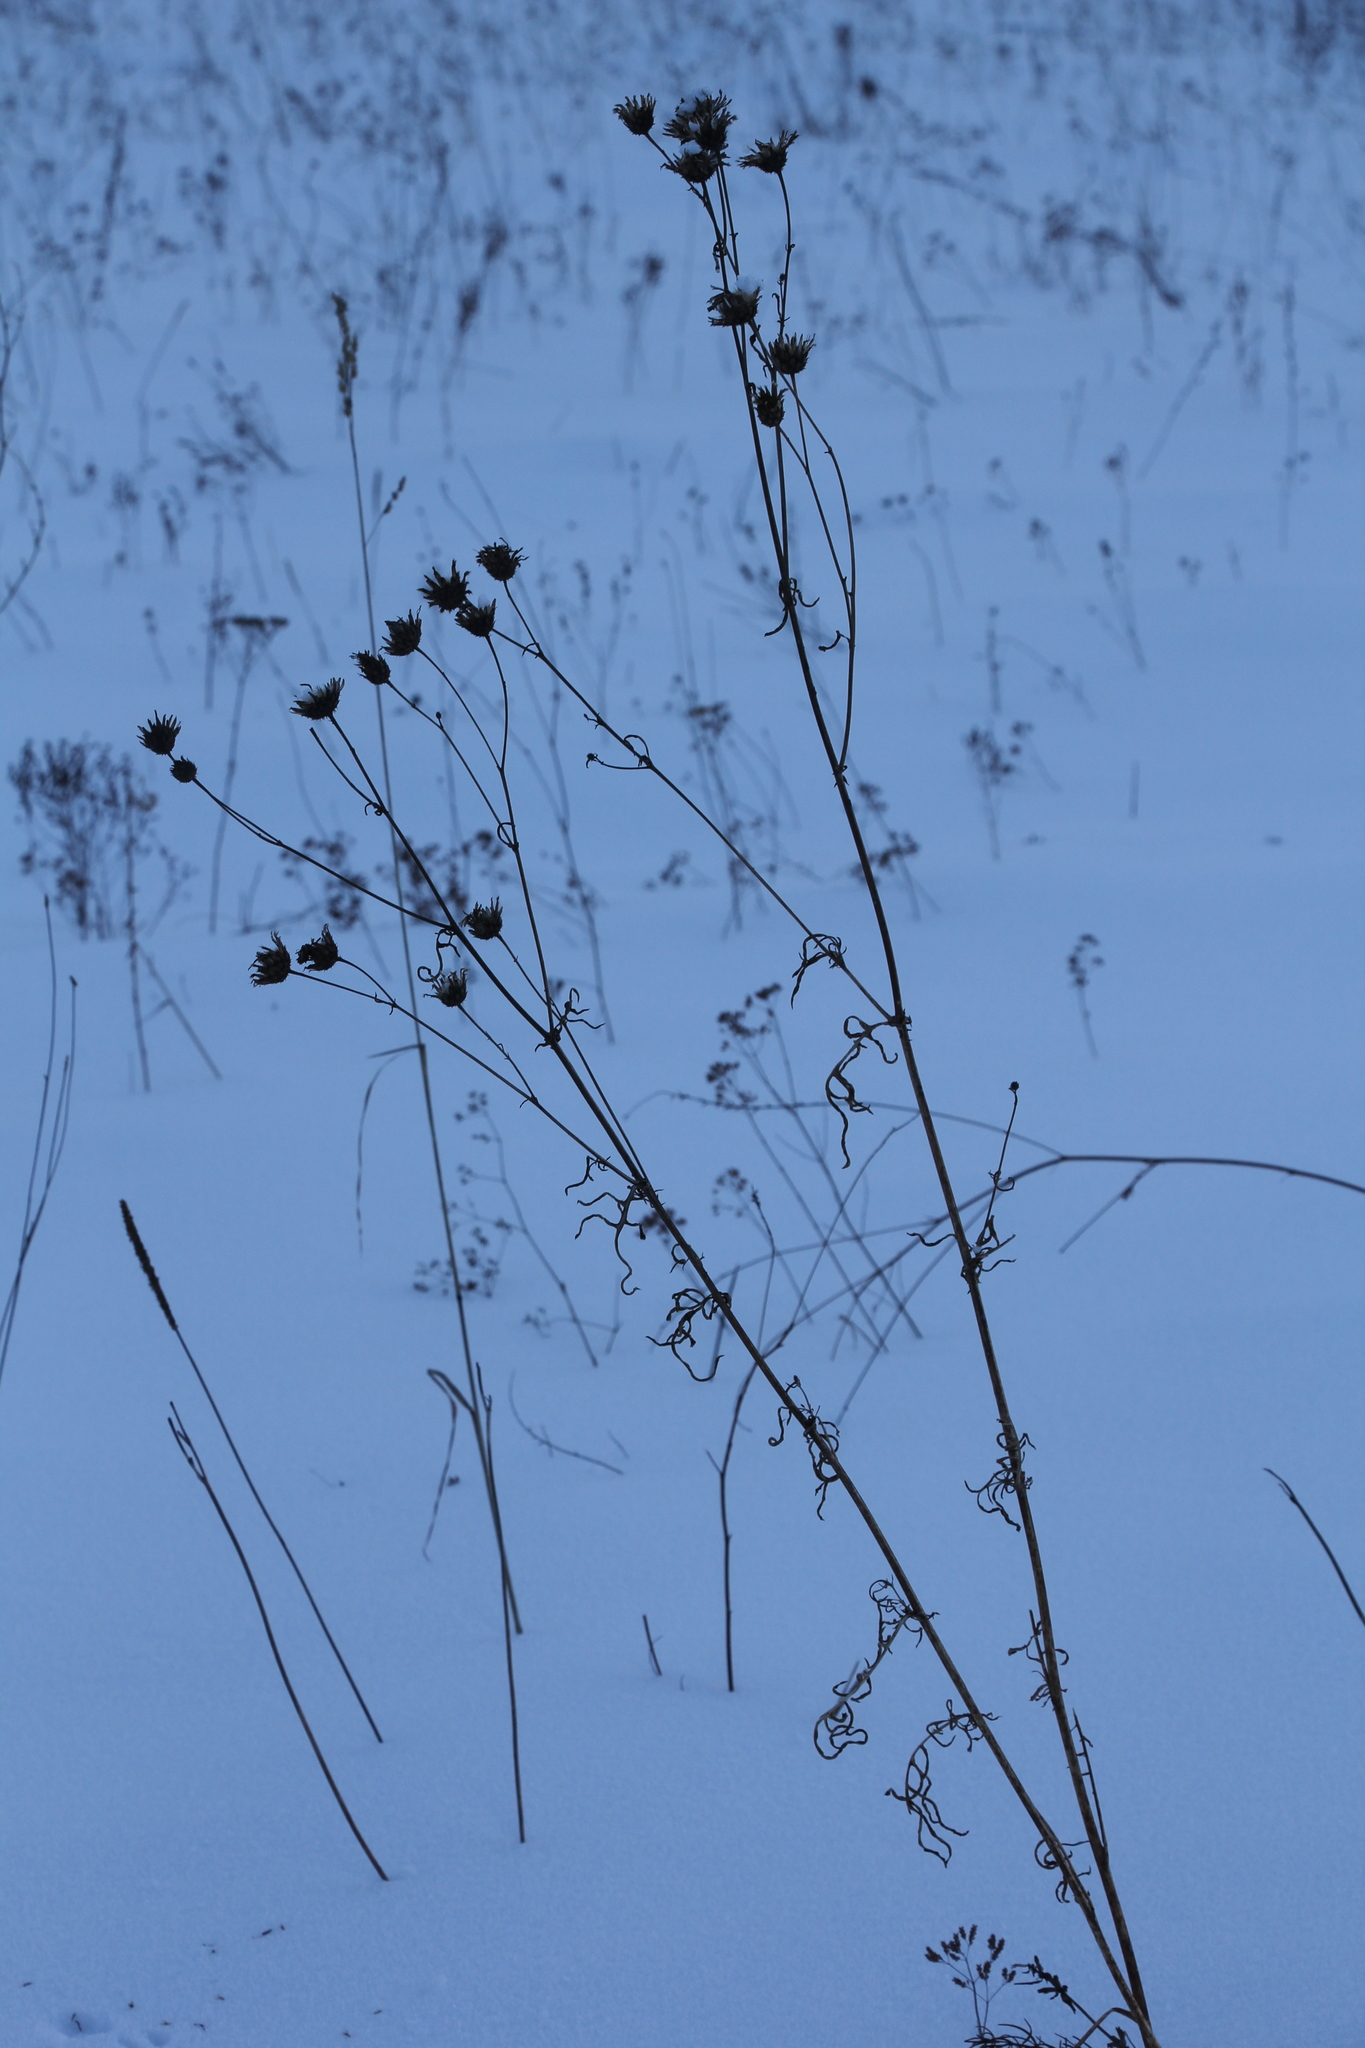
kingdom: Plantae
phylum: Tracheophyta
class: Magnoliopsida
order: Asterales
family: Asteraceae
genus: Centaurea
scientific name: Centaurea scabiosa
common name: Greater knapweed
